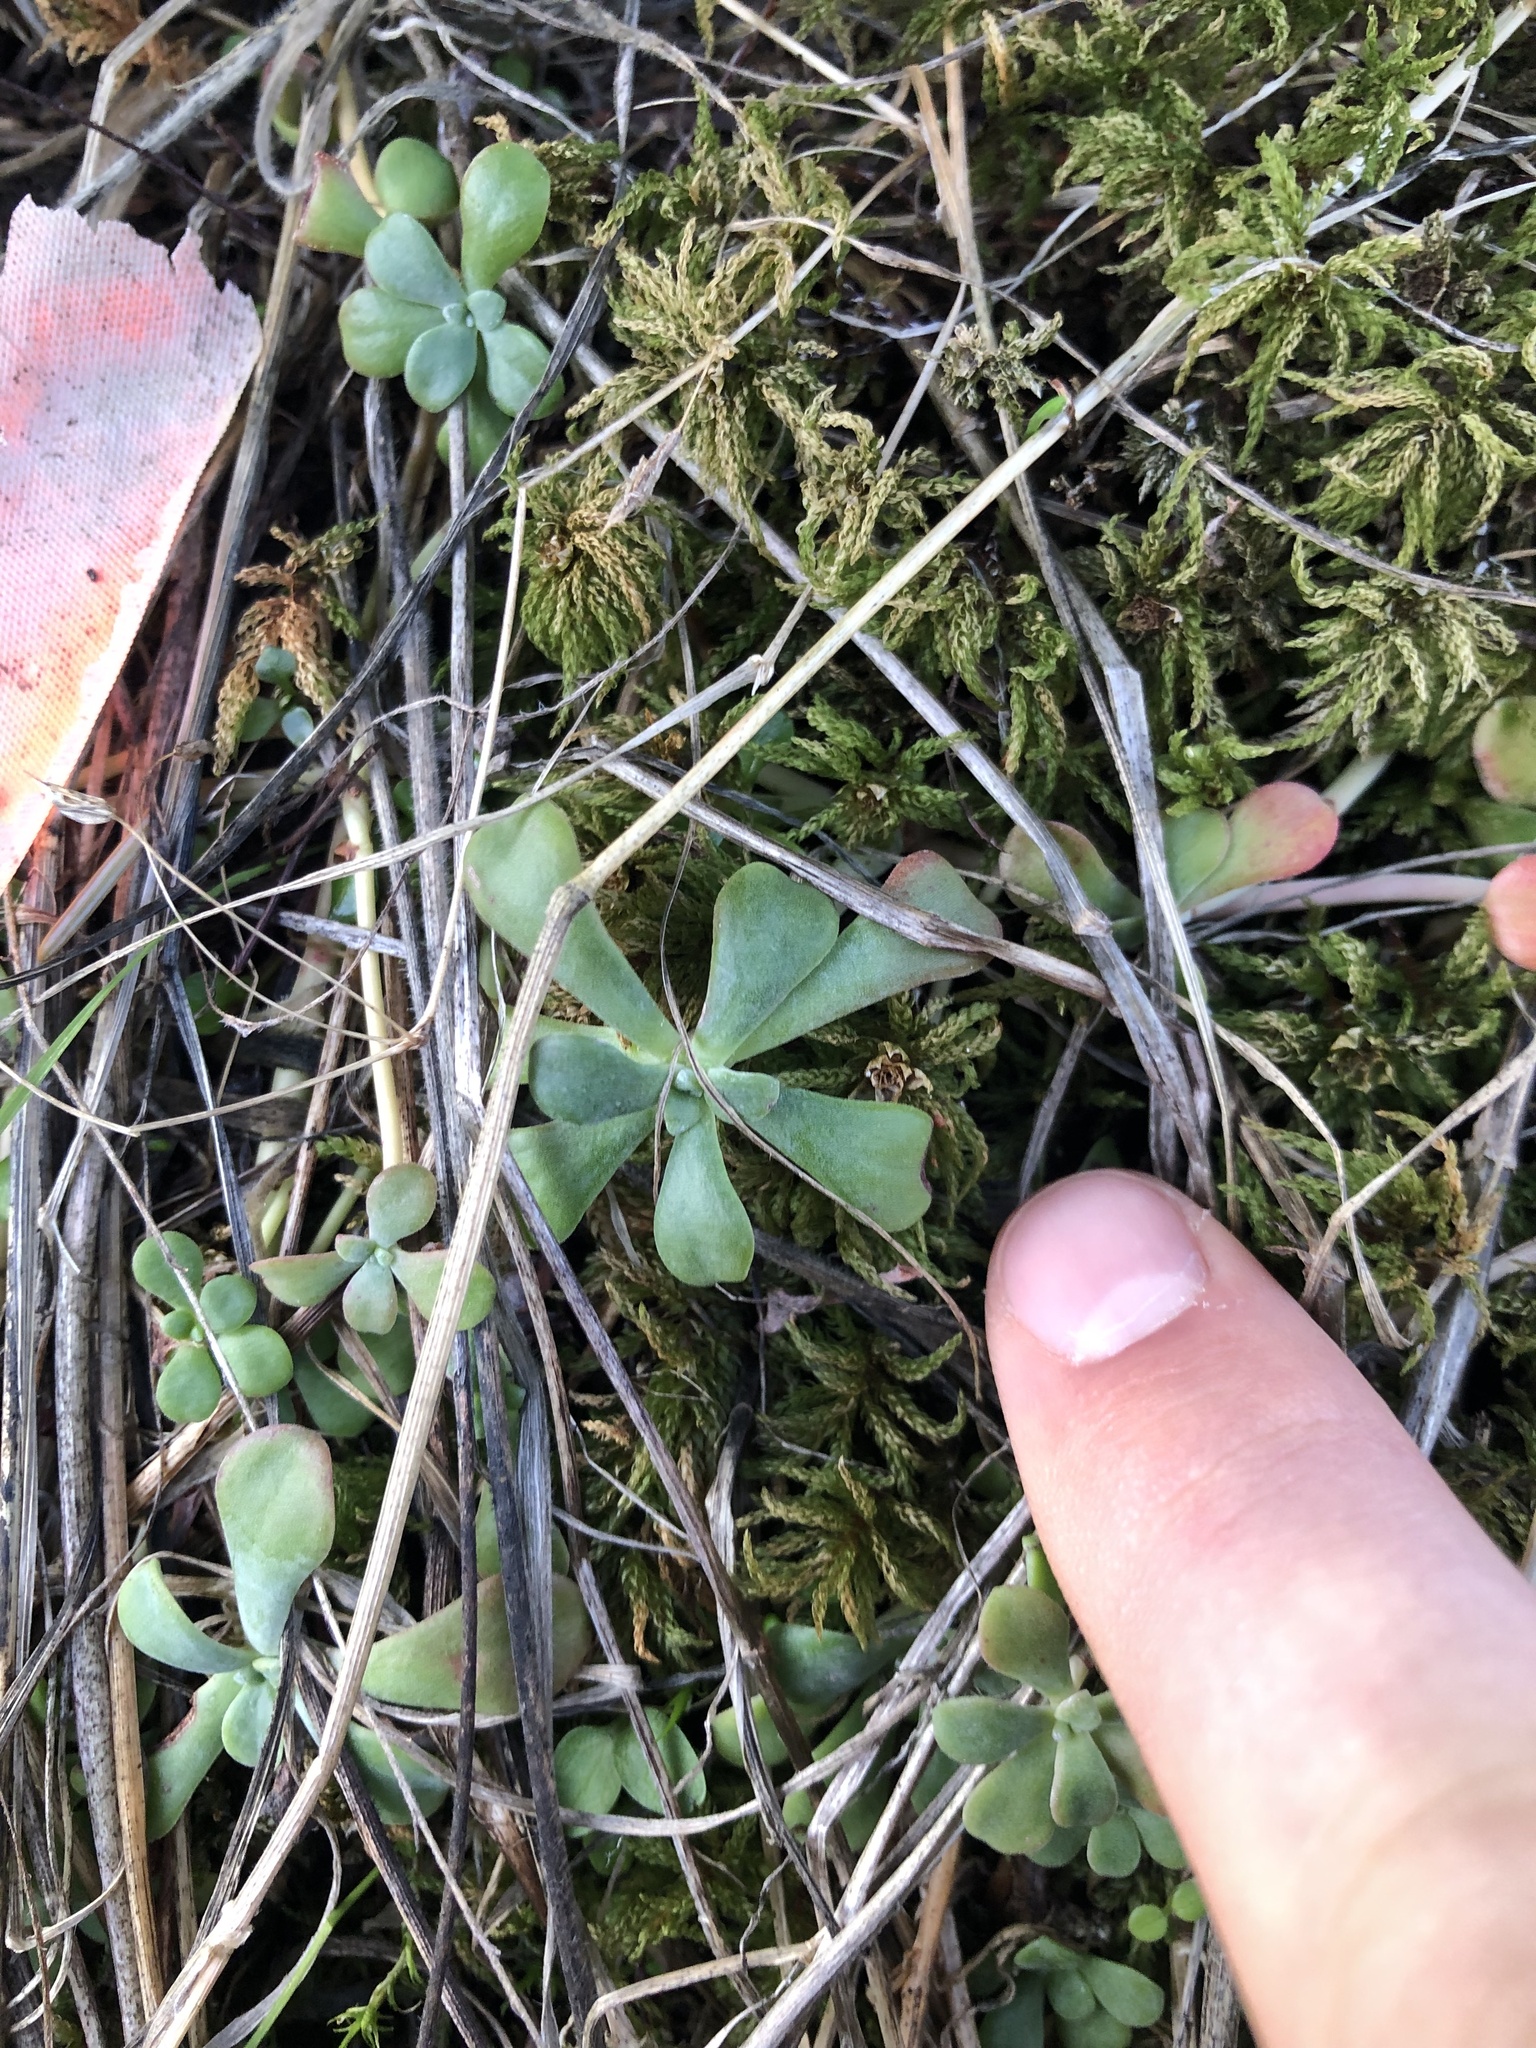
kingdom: Plantae
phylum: Tracheophyta
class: Magnoliopsida
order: Saxifragales
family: Crassulaceae
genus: Sedum
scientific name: Sedum spathulifolium
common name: Colorado stonecrop
